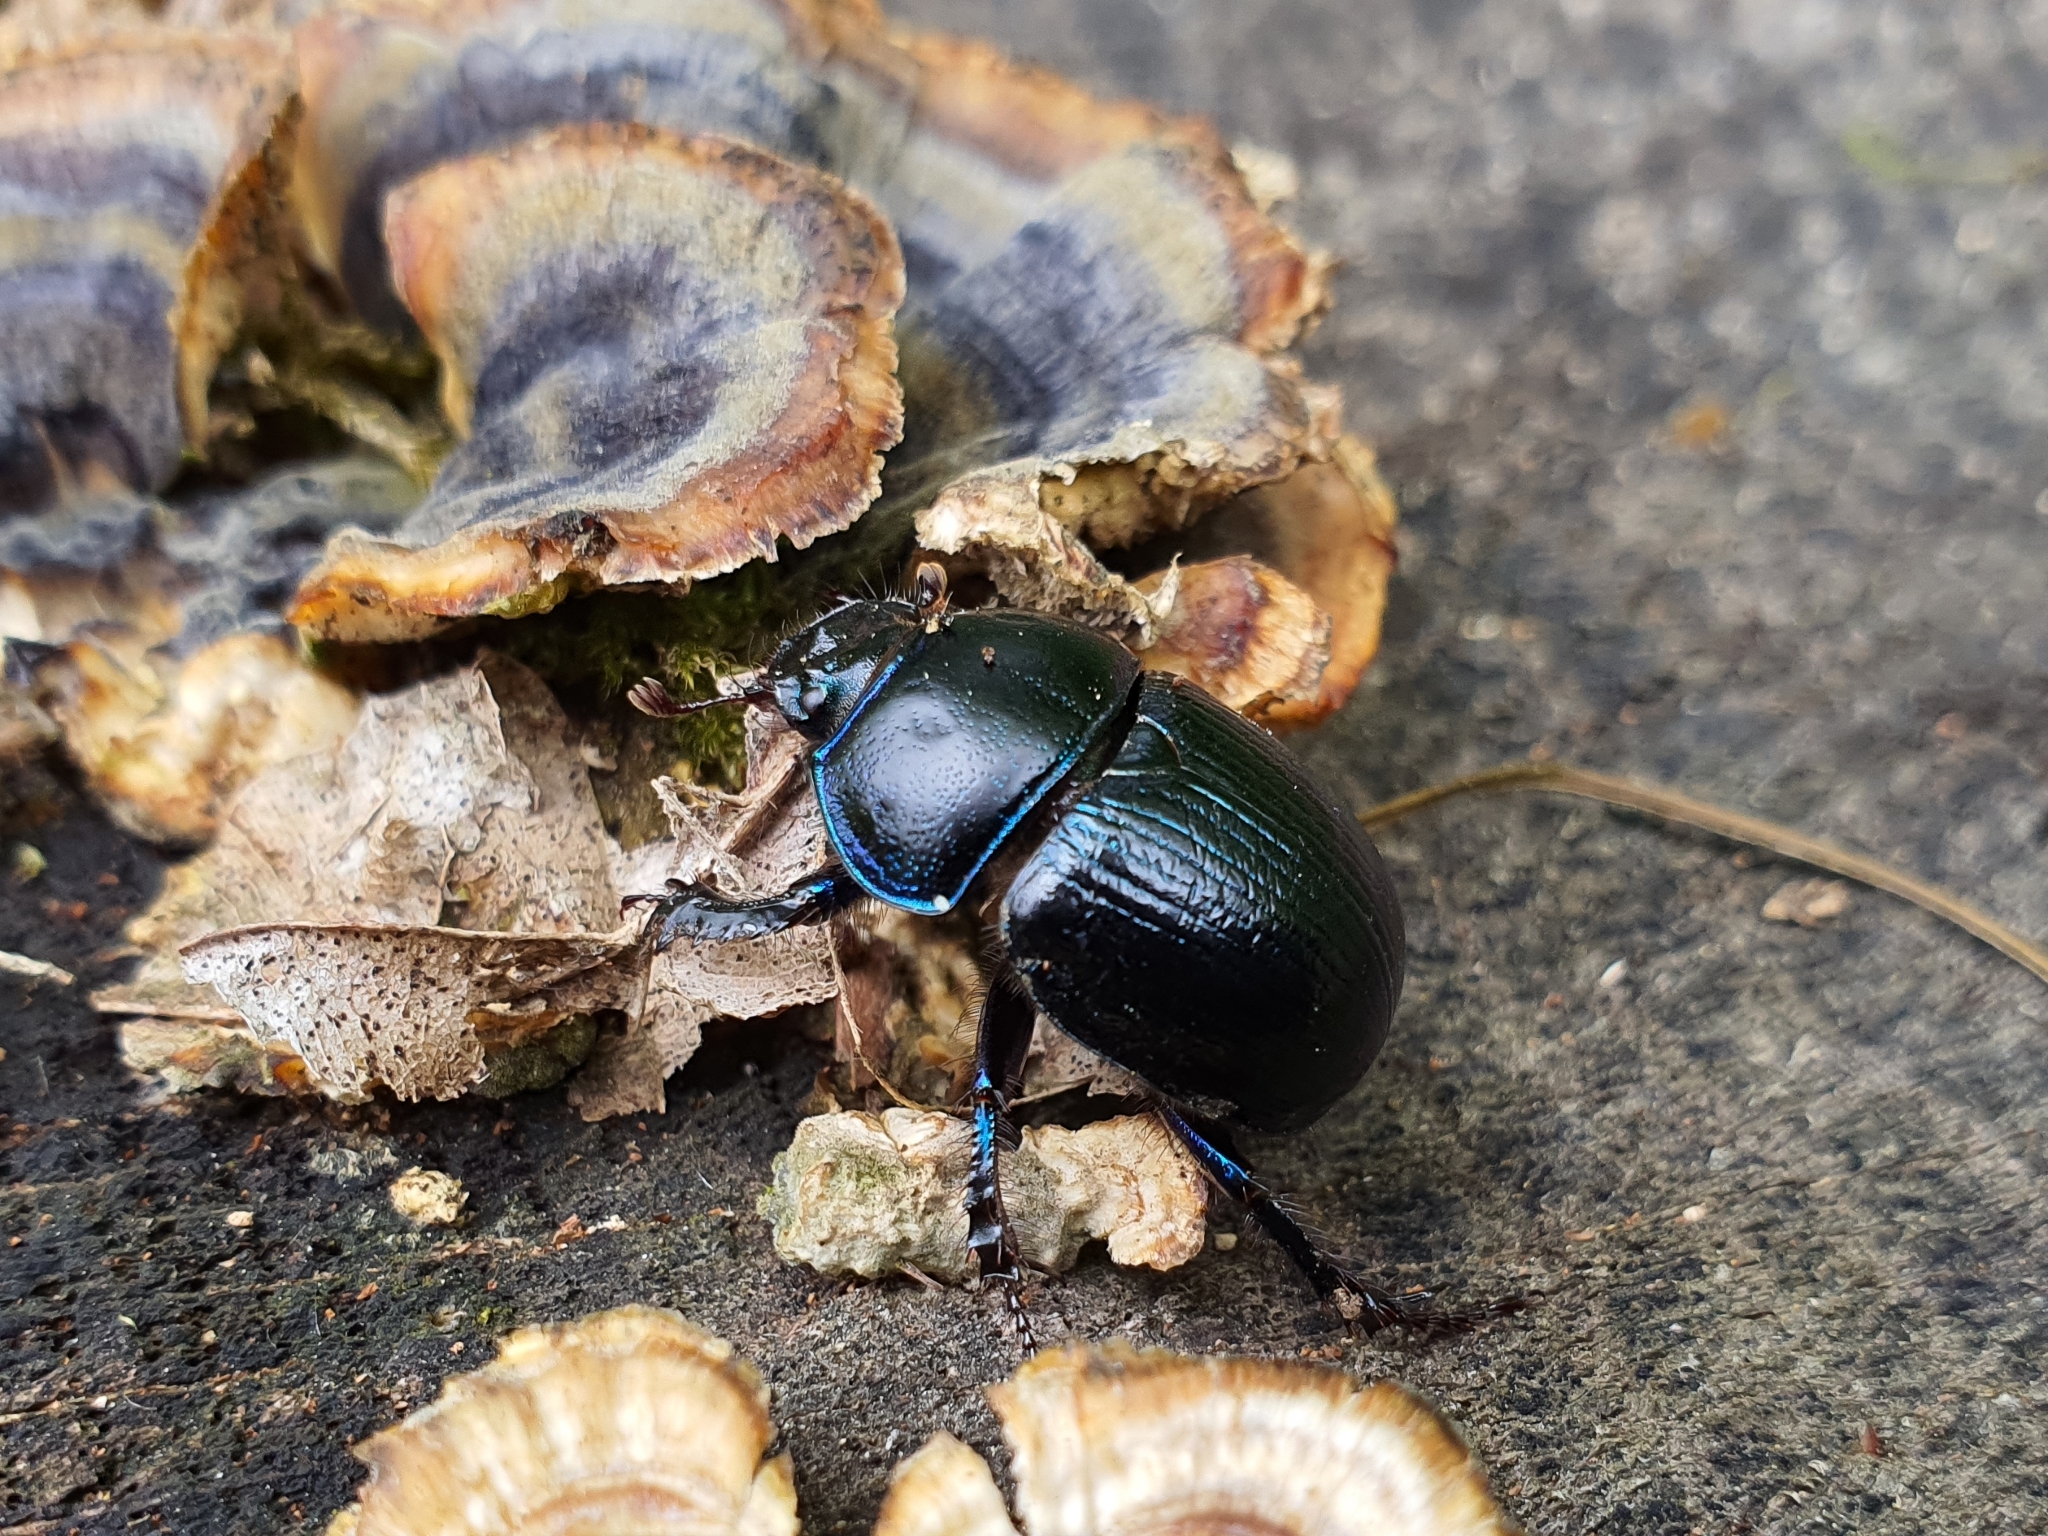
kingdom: Animalia
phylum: Arthropoda
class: Insecta
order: Coleoptera
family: Geotrupidae
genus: Anoplotrupes
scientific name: Anoplotrupes stercorosus
